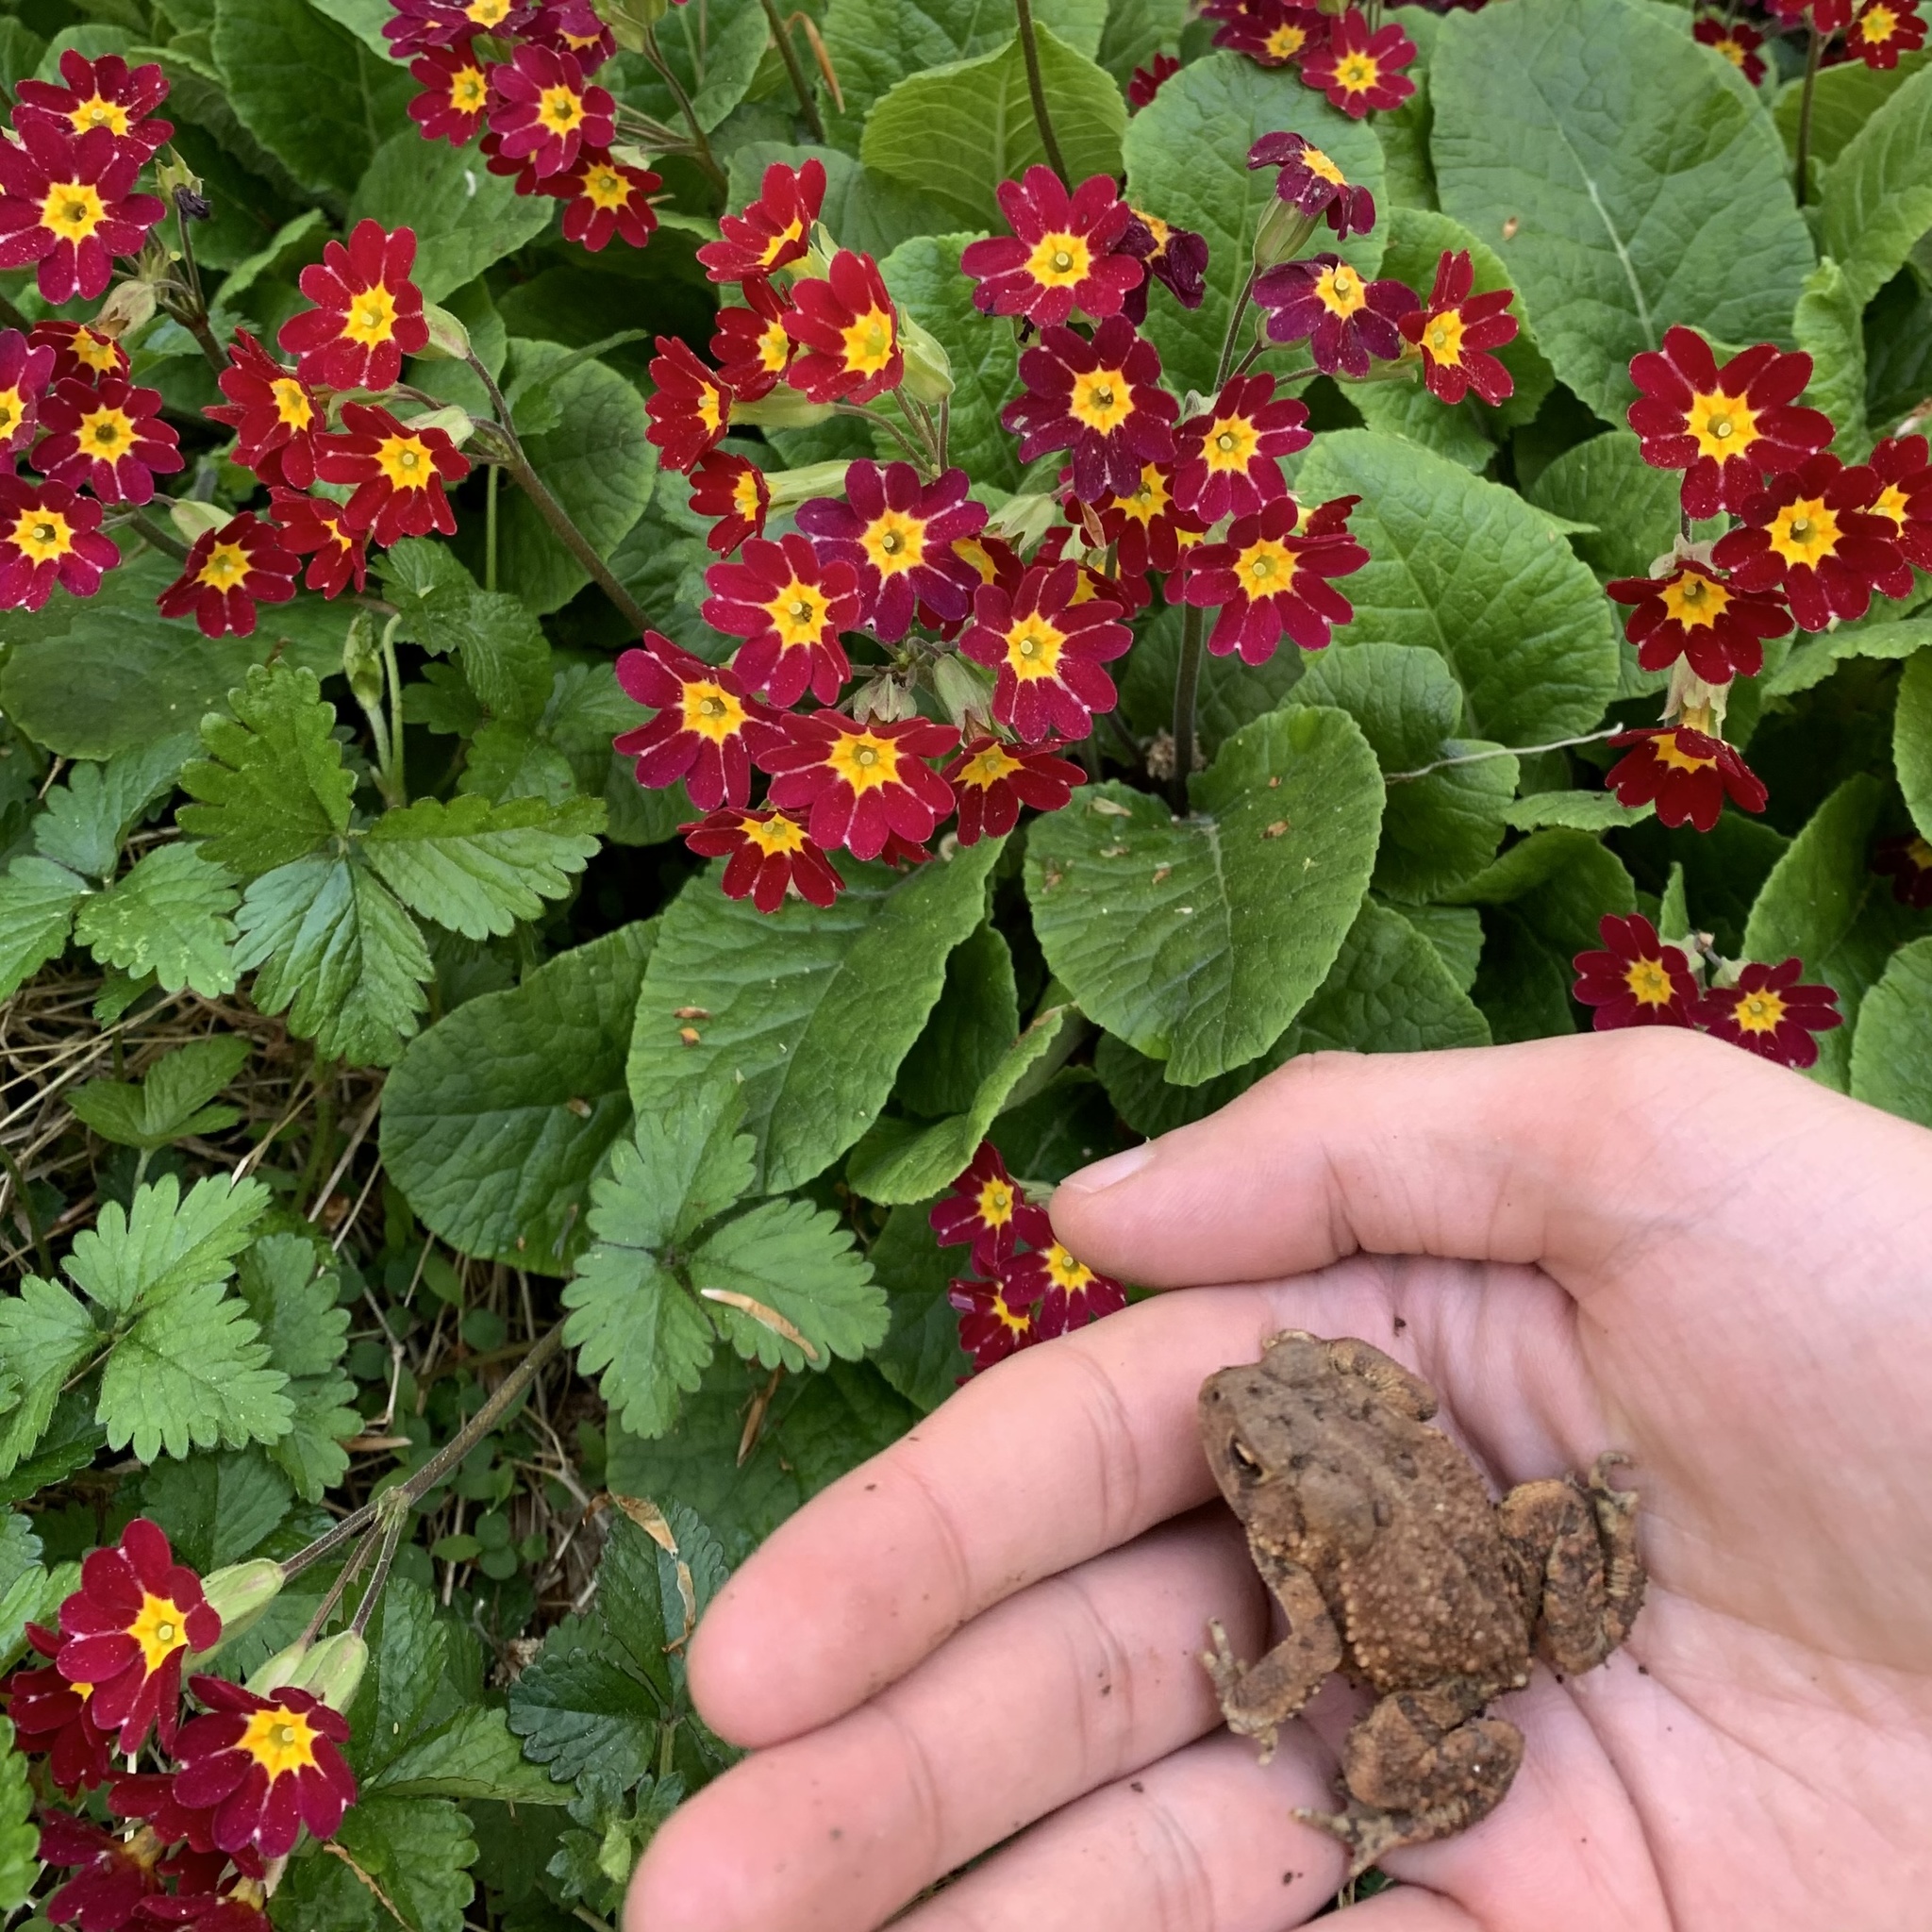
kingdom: Animalia
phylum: Chordata
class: Amphibia
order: Anura
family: Bufonidae
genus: Anaxyrus
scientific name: Anaxyrus americanus
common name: American toad
